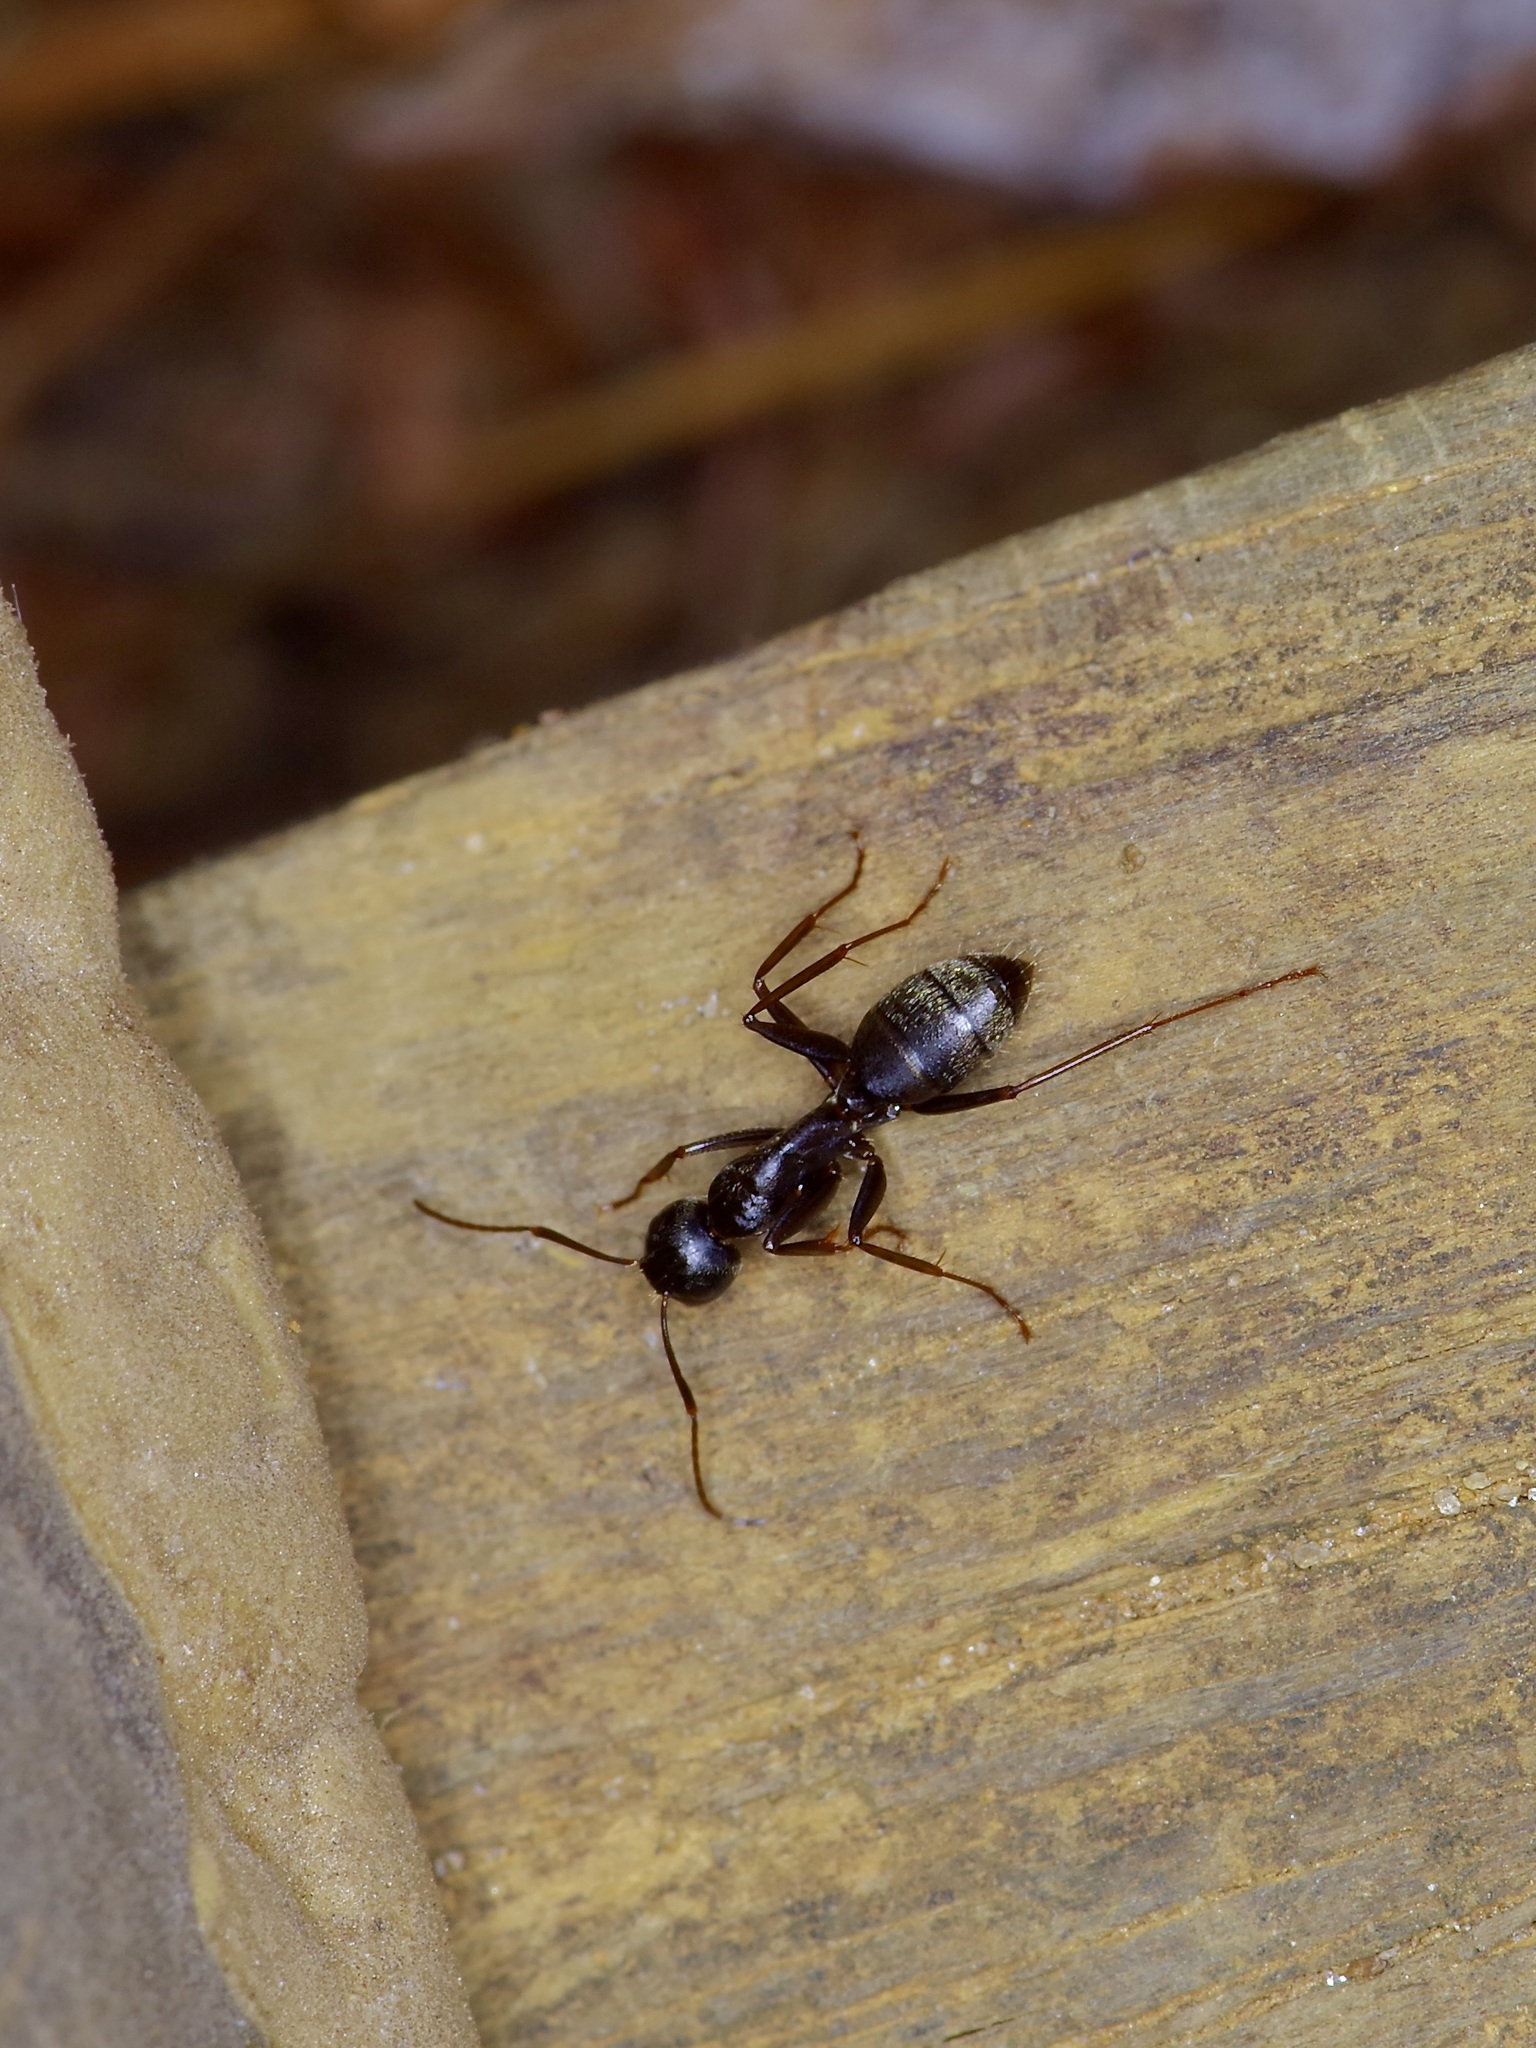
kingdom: Animalia
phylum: Arthropoda
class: Insecta
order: Hymenoptera
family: Formicidae
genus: Camponotus
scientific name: Camponotus pennsylvanicus
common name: Black carpenter ant
